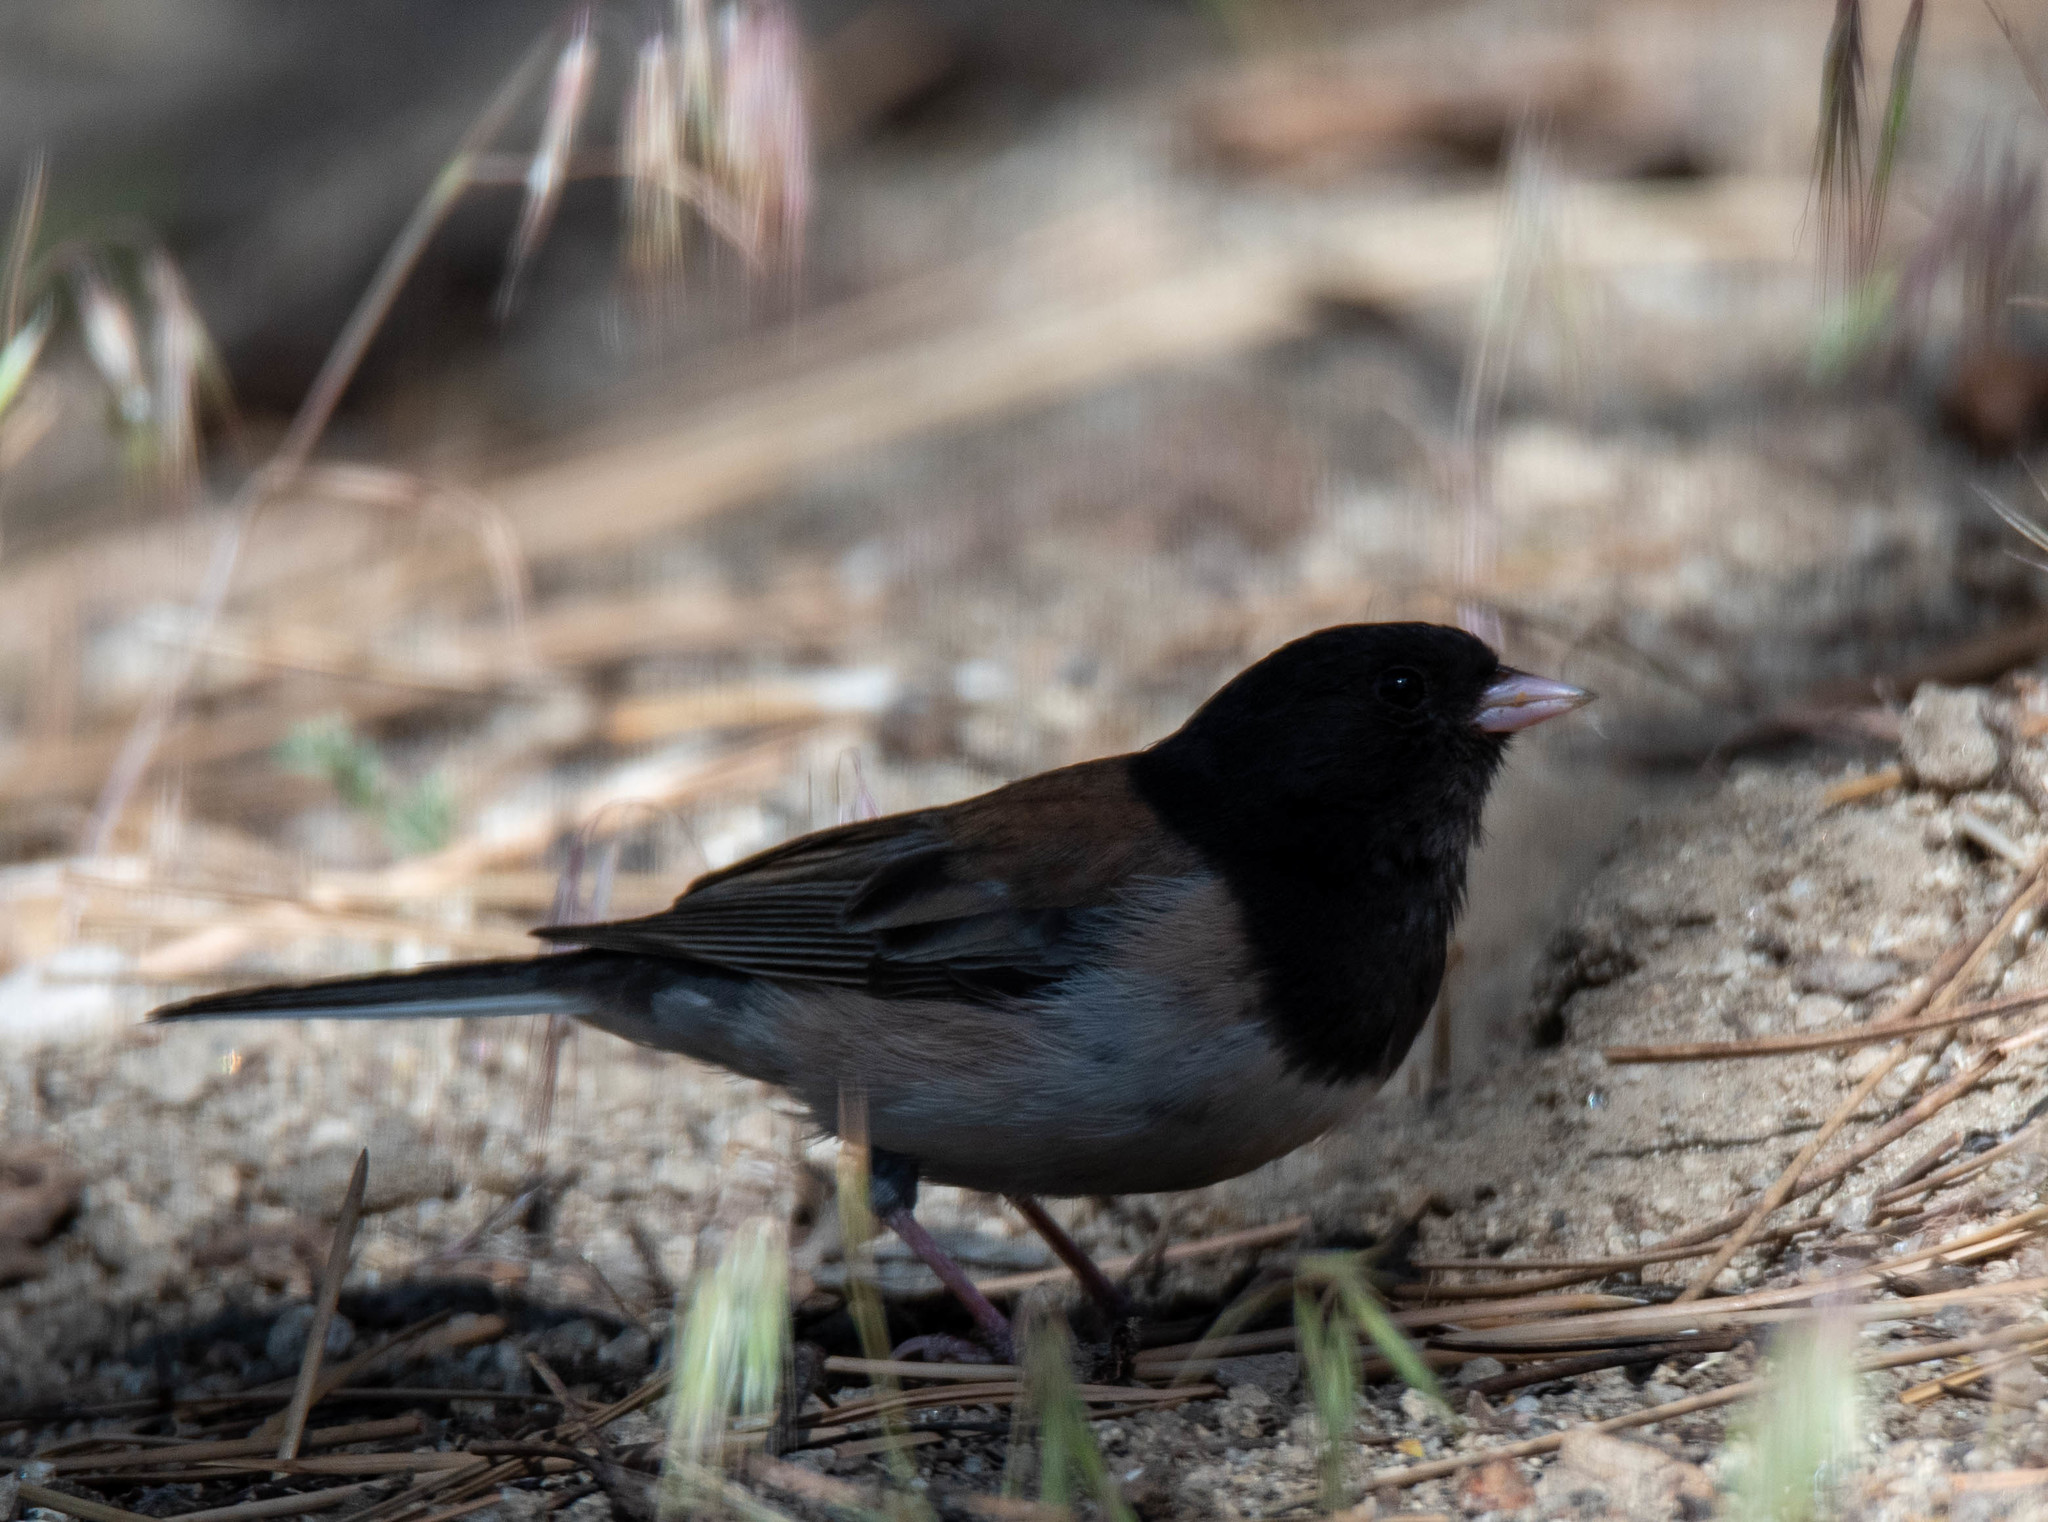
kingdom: Animalia
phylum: Chordata
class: Aves
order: Passeriformes
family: Passerellidae
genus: Junco
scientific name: Junco hyemalis
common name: Dark-eyed junco
